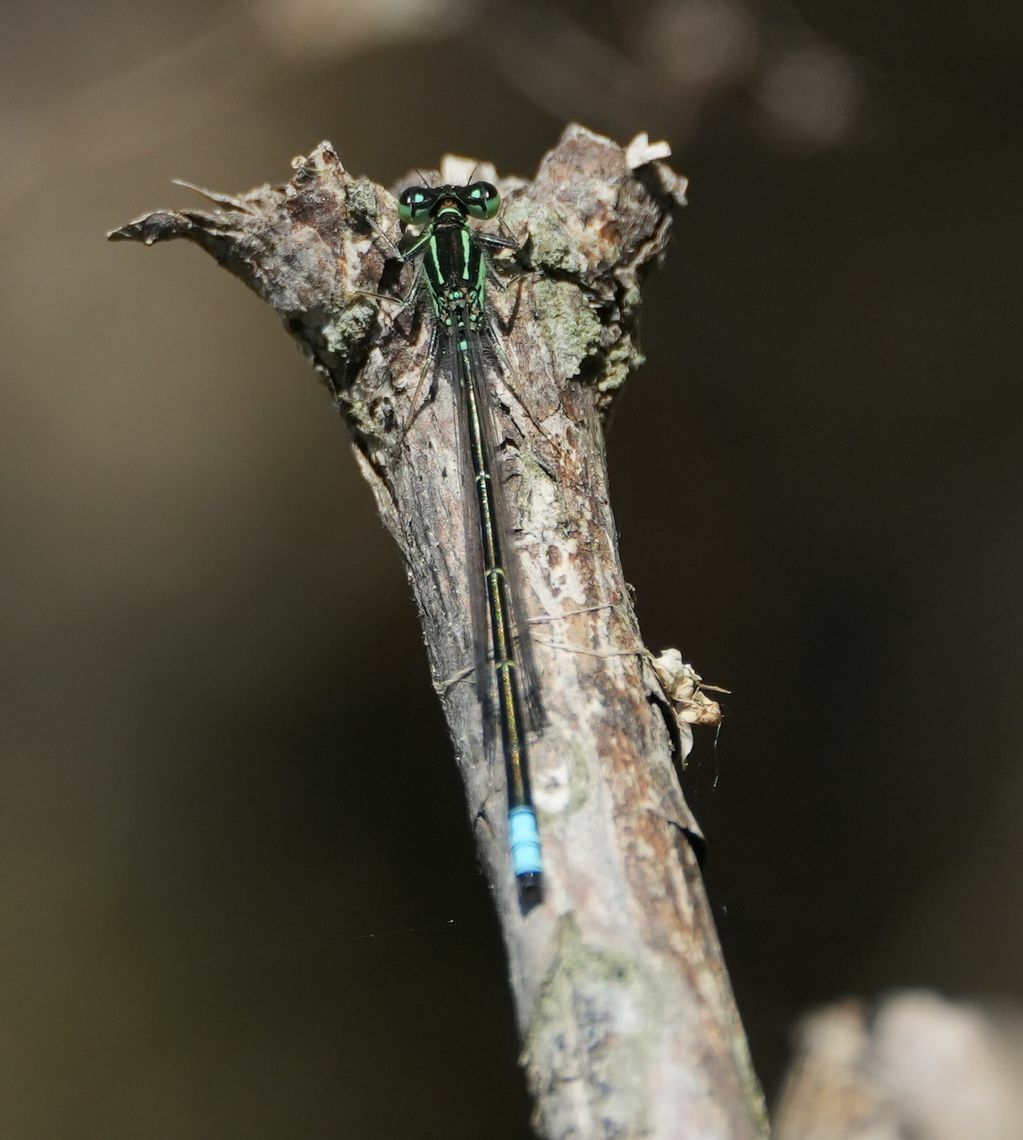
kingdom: Animalia
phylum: Arthropoda
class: Insecta
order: Odonata
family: Coenagrionidae
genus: Ischnura
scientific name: Ischnura verticalis
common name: Eastern forktail
